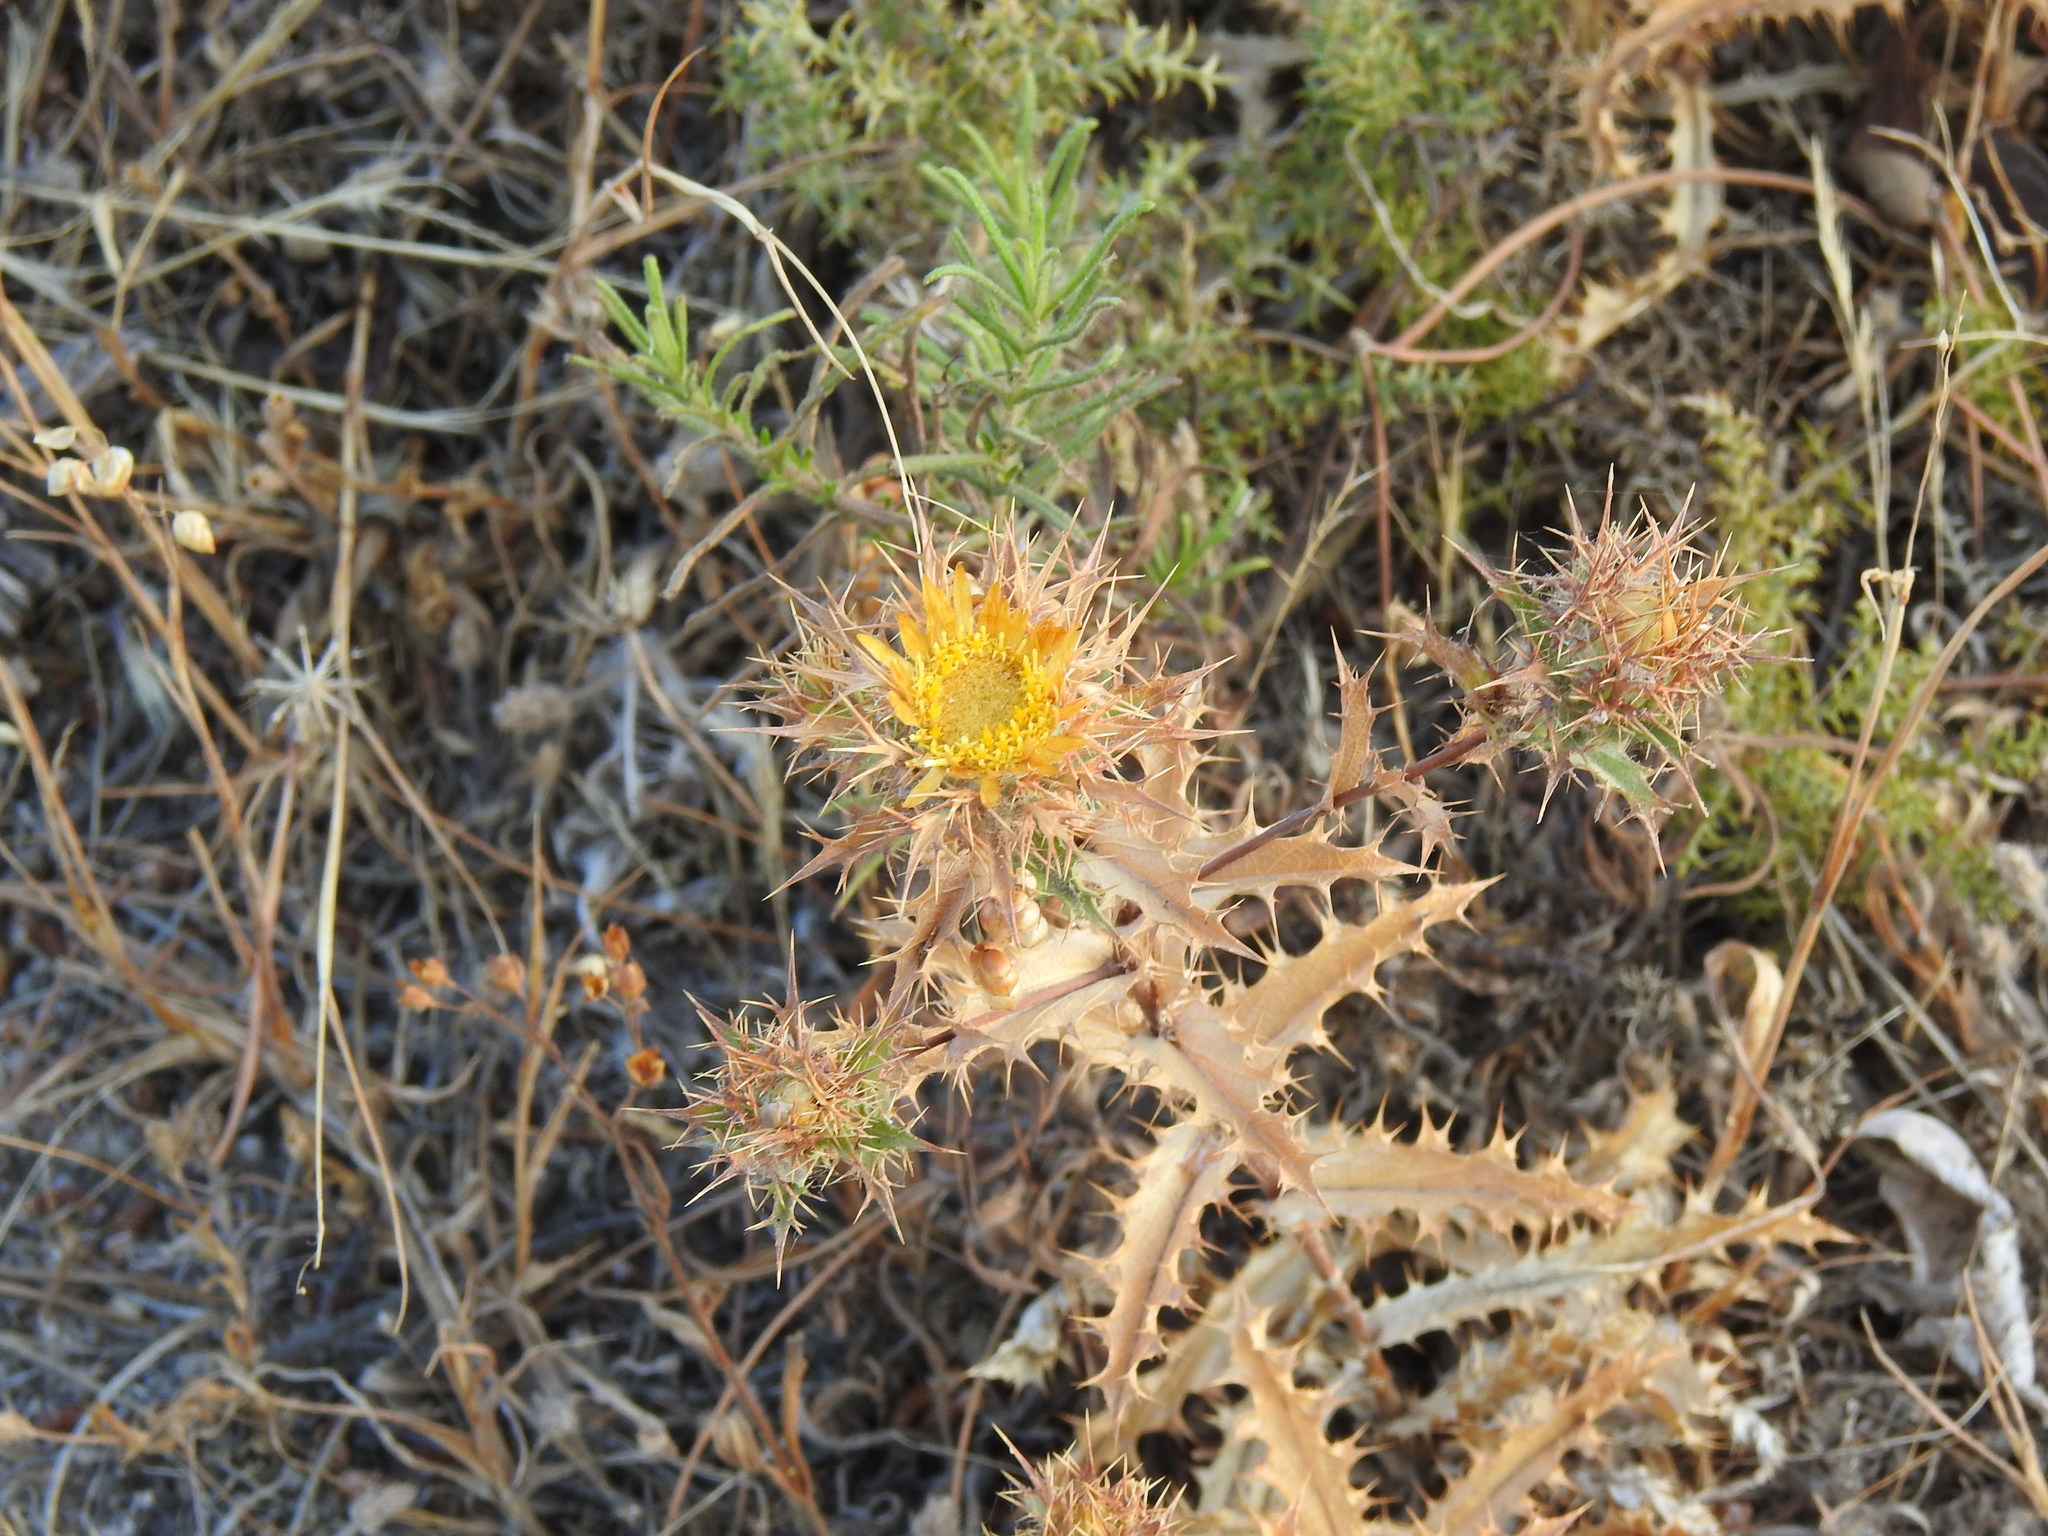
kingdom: Plantae
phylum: Tracheophyta
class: Magnoliopsida
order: Asterales
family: Asteraceae
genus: Carlina
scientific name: Carlina hispanica
